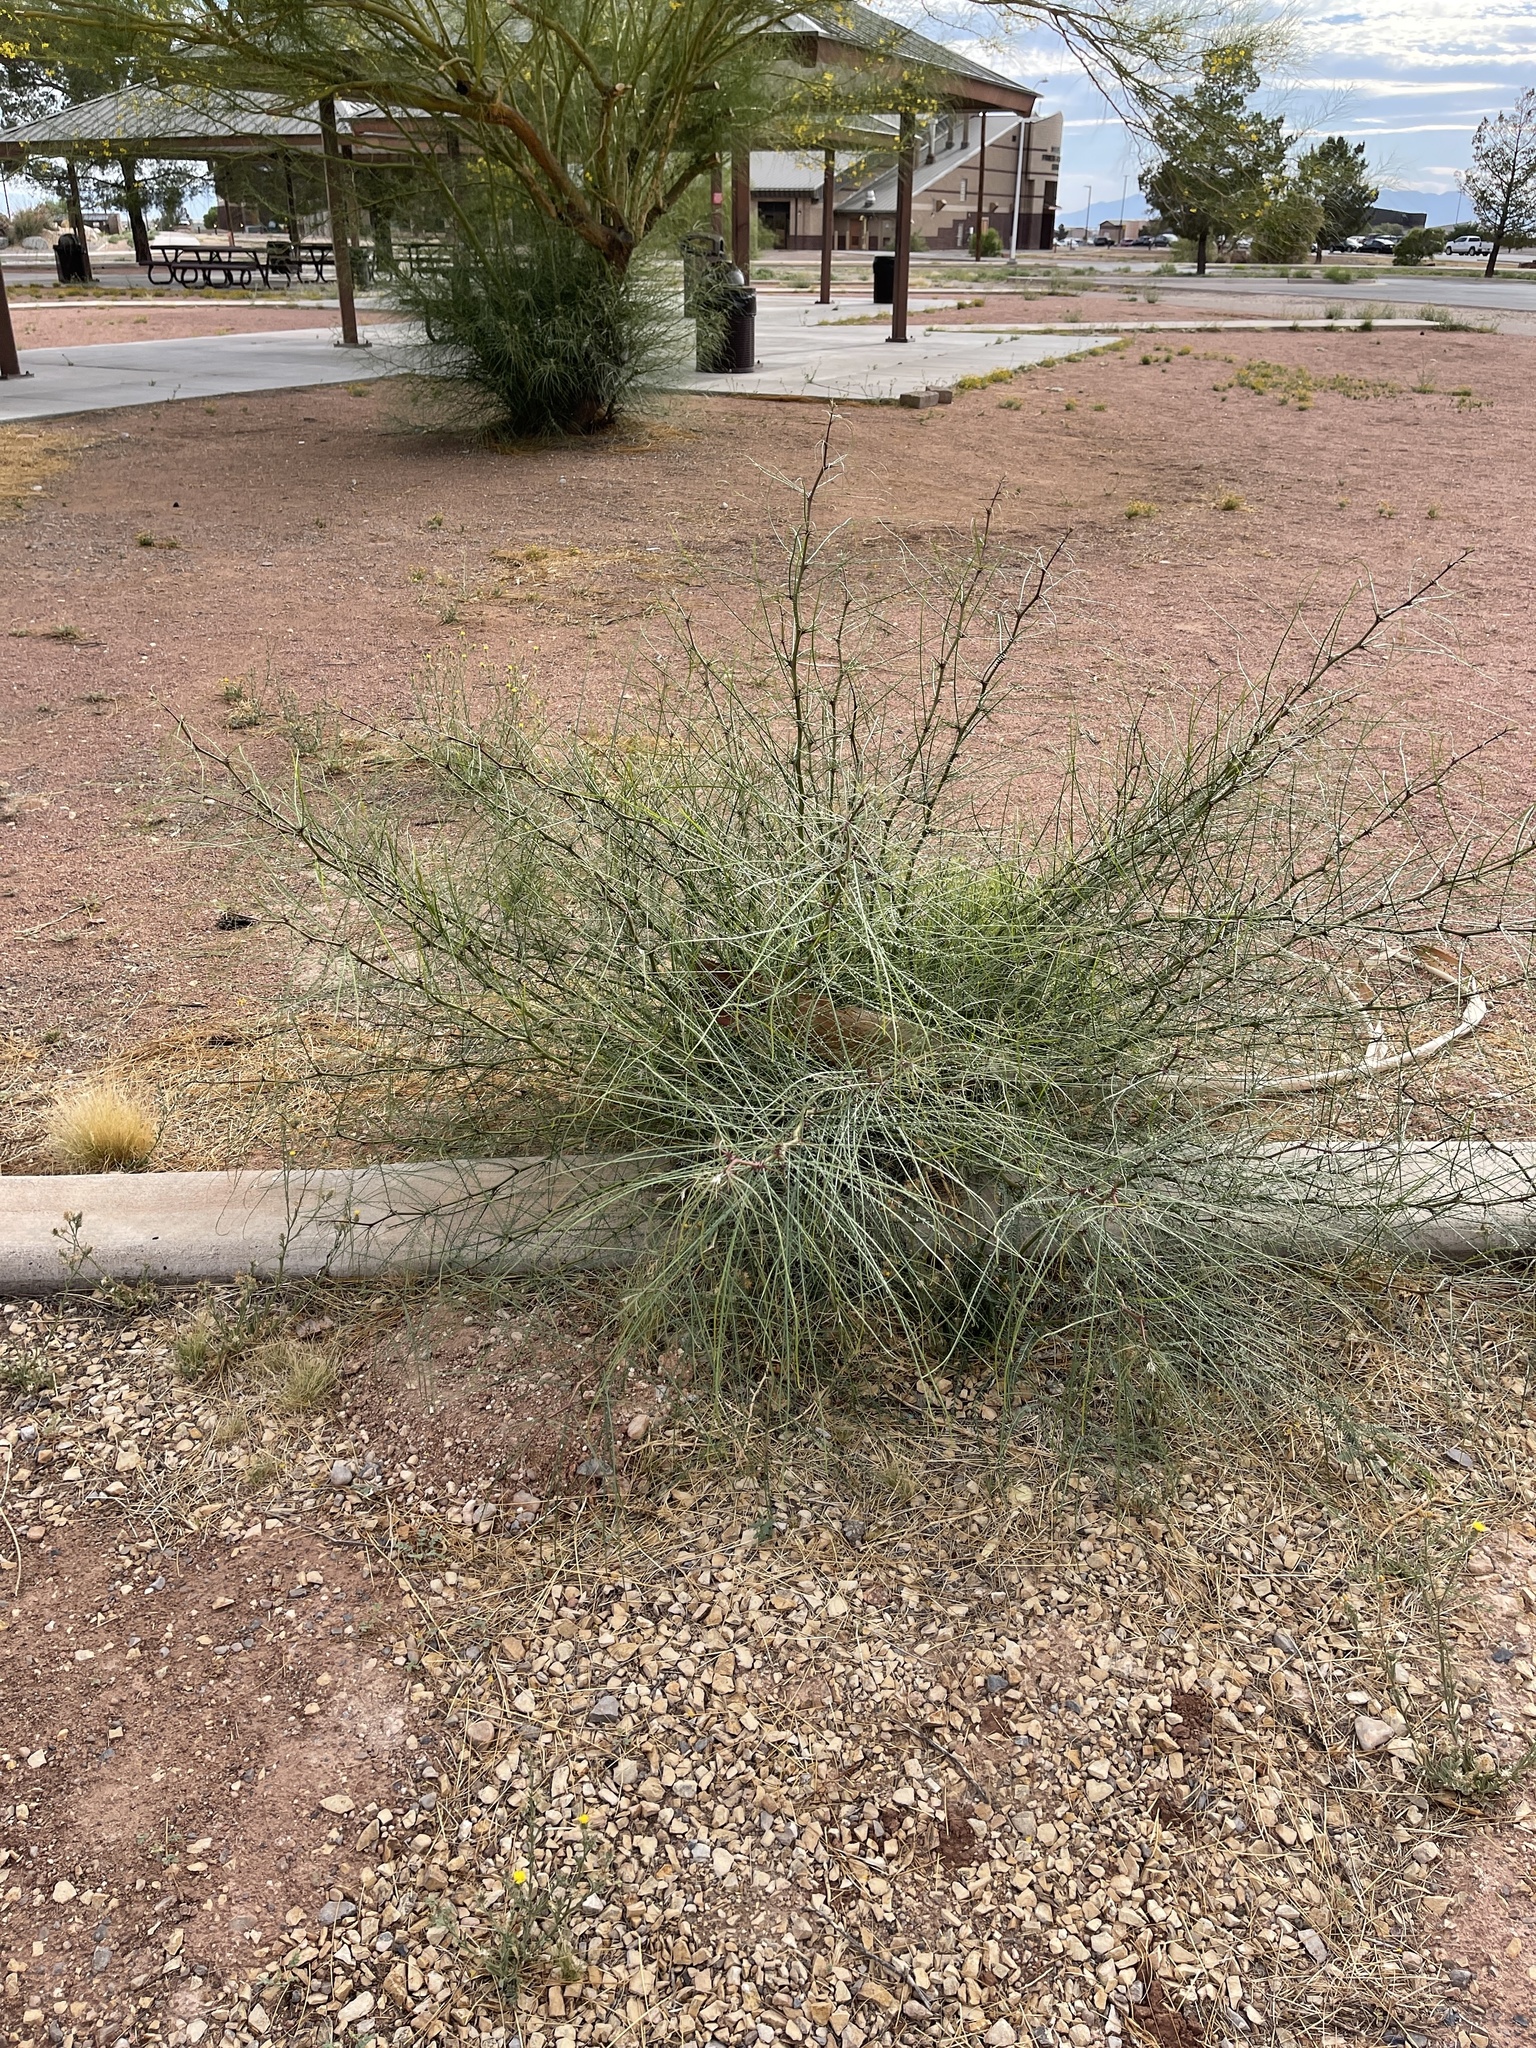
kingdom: Plantae
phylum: Tracheophyta
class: Magnoliopsida
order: Fabales
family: Fabaceae
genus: Parkinsonia
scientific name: Parkinsonia aculeata
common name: Jerusalem thorn
